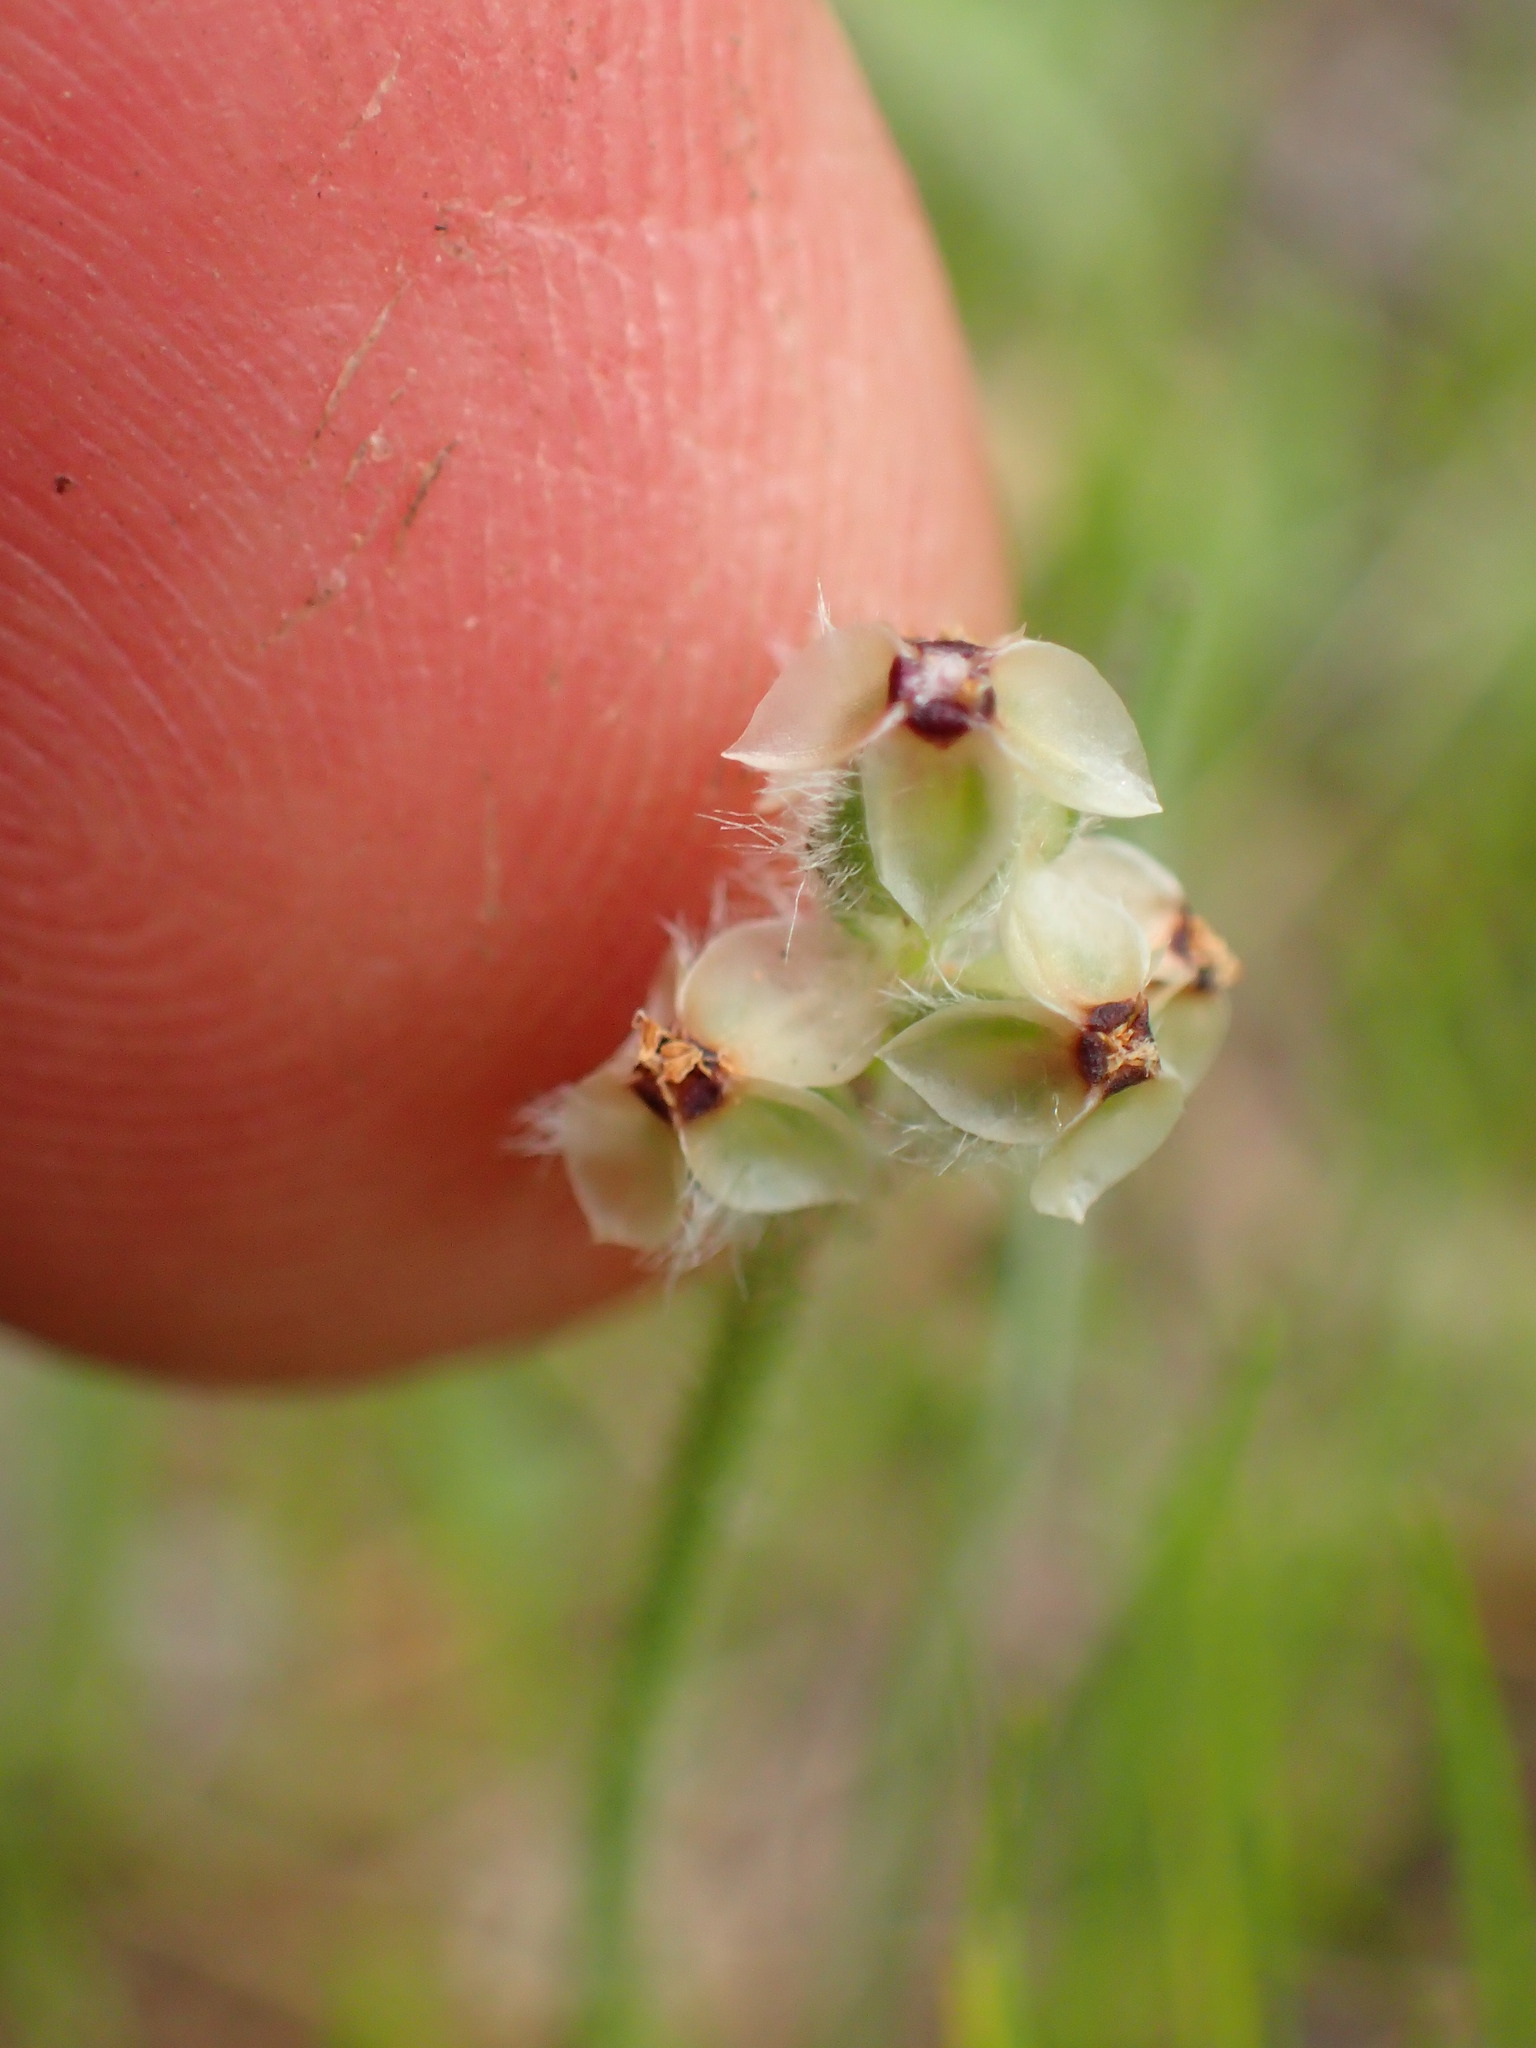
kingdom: Plantae
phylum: Tracheophyta
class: Magnoliopsida
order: Lamiales
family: Plantaginaceae
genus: Plantago
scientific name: Plantago erecta
